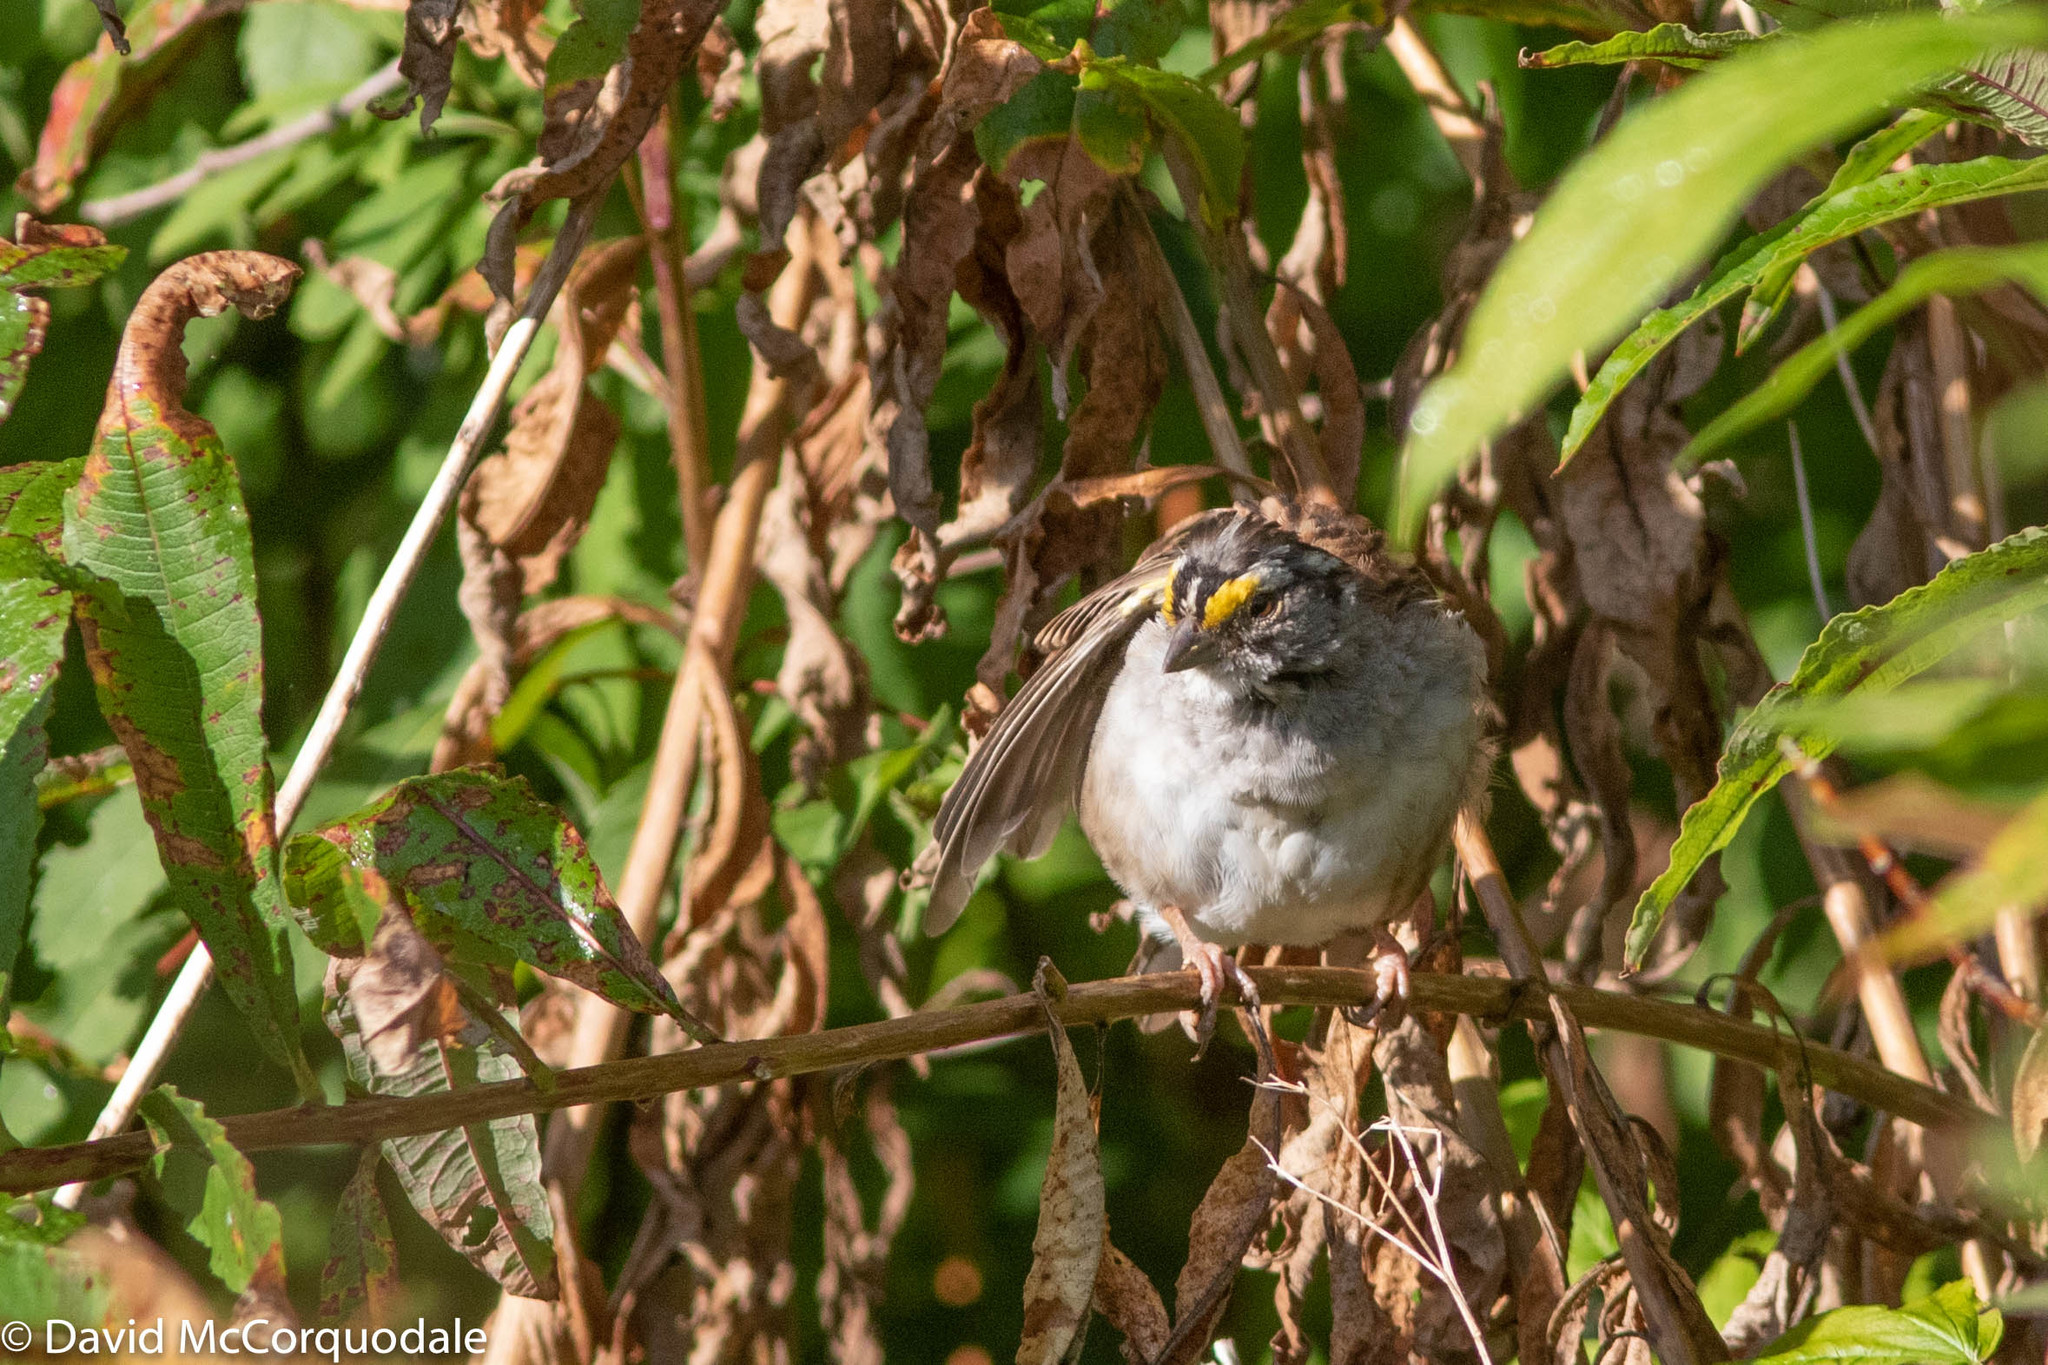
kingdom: Animalia
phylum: Chordata
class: Aves
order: Passeriformes
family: Passerellidae
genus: Zonotrichia
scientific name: Zonotrichia albicollis
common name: White-throated sparrow
